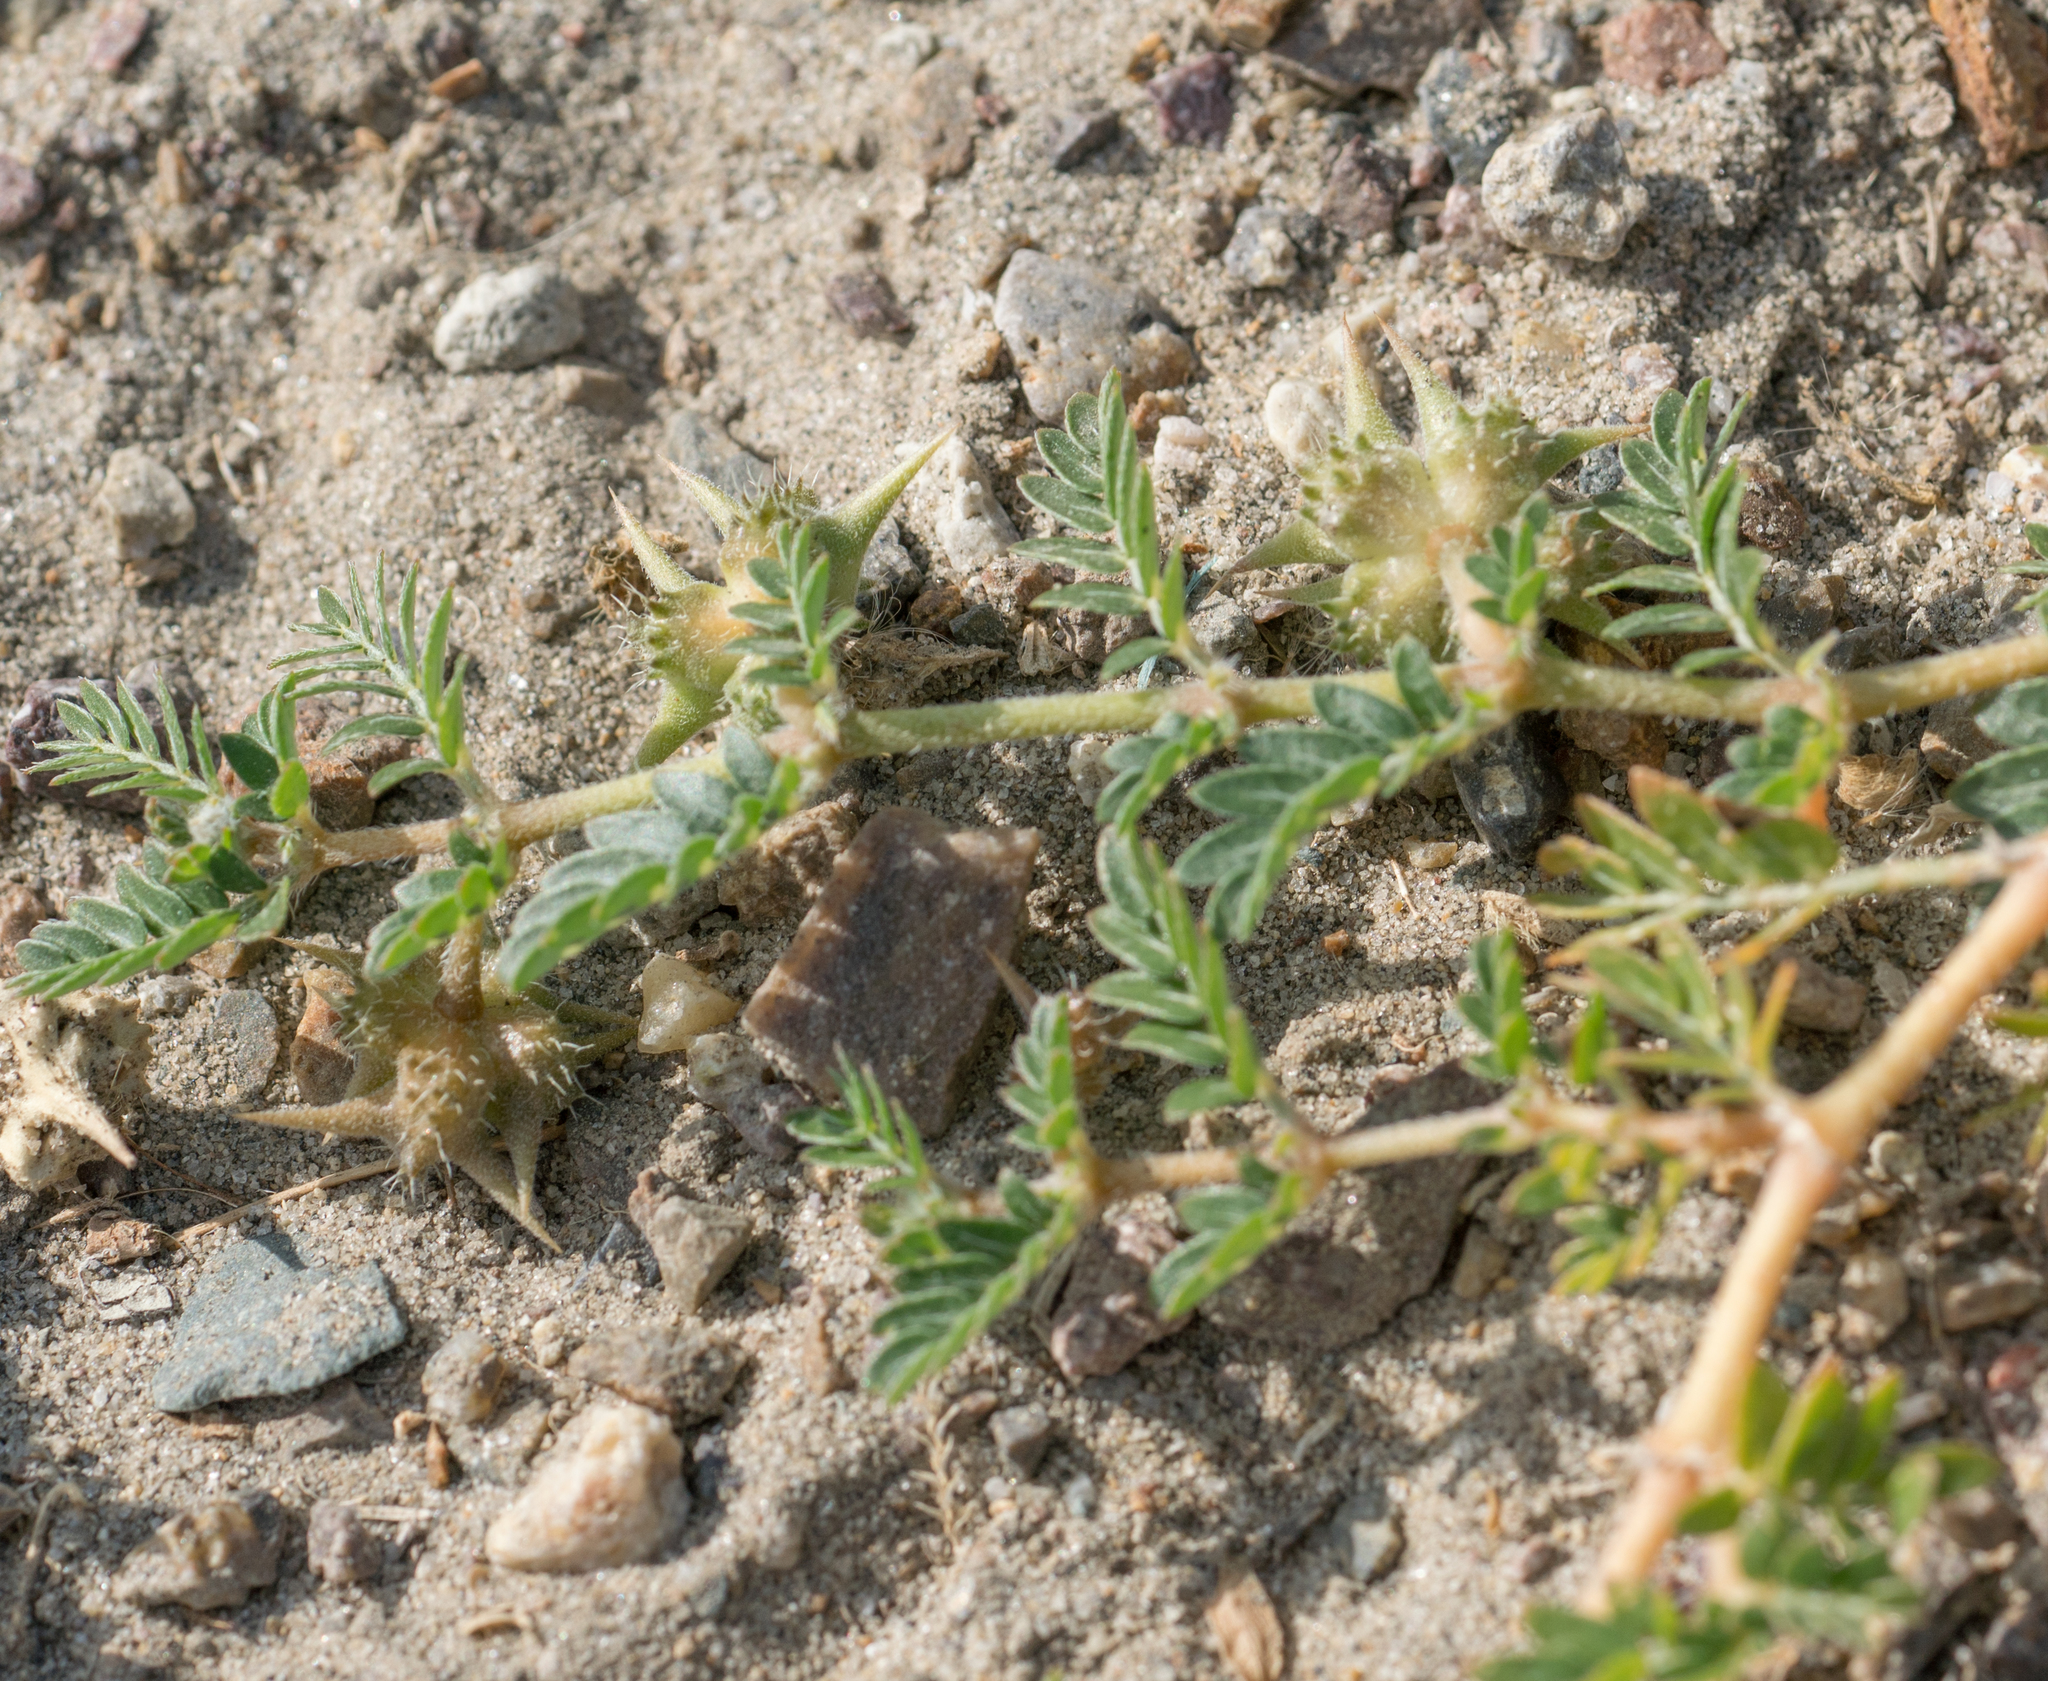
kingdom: Plantae
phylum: Tracheophyta
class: Magnoliopsida
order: Zygophyllales
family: Zygophyllaceae
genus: Tribulus
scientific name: Tribulus terrestris
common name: Puncturevine
